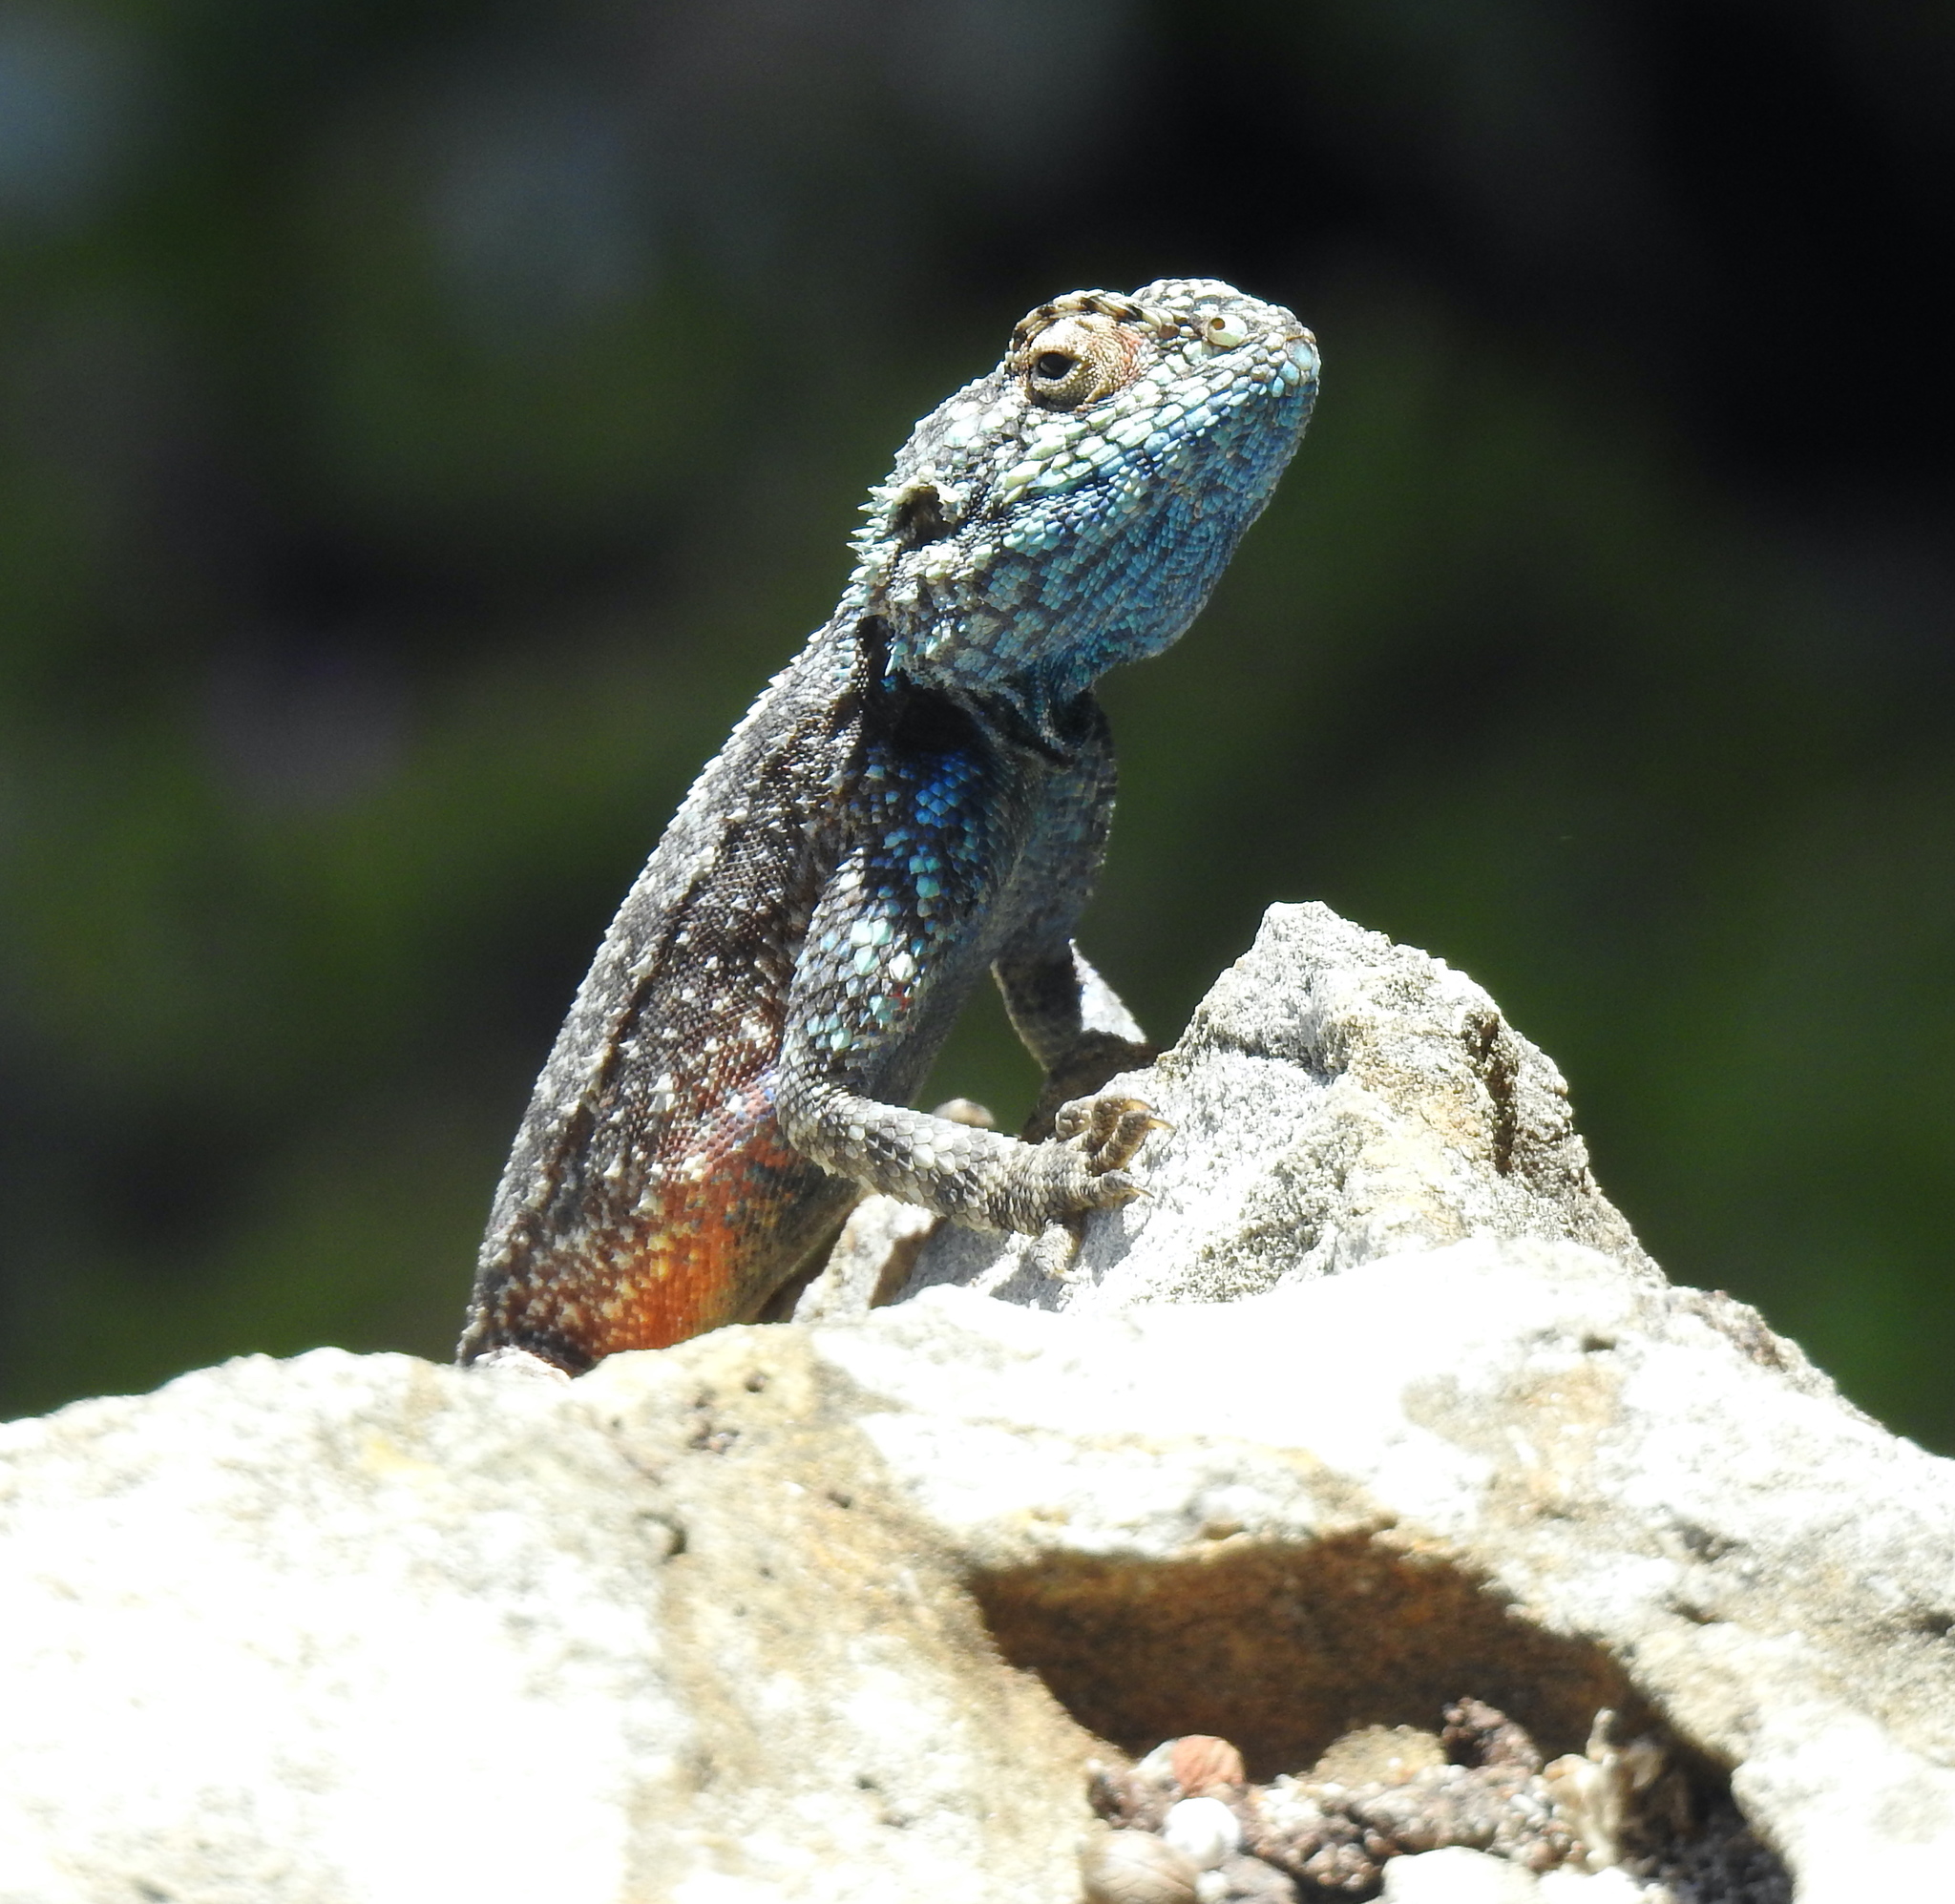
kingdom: Animalia
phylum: Chordata
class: Squamata
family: Agamidae
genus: Agama
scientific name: Agama atra
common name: Southern african rock agama
